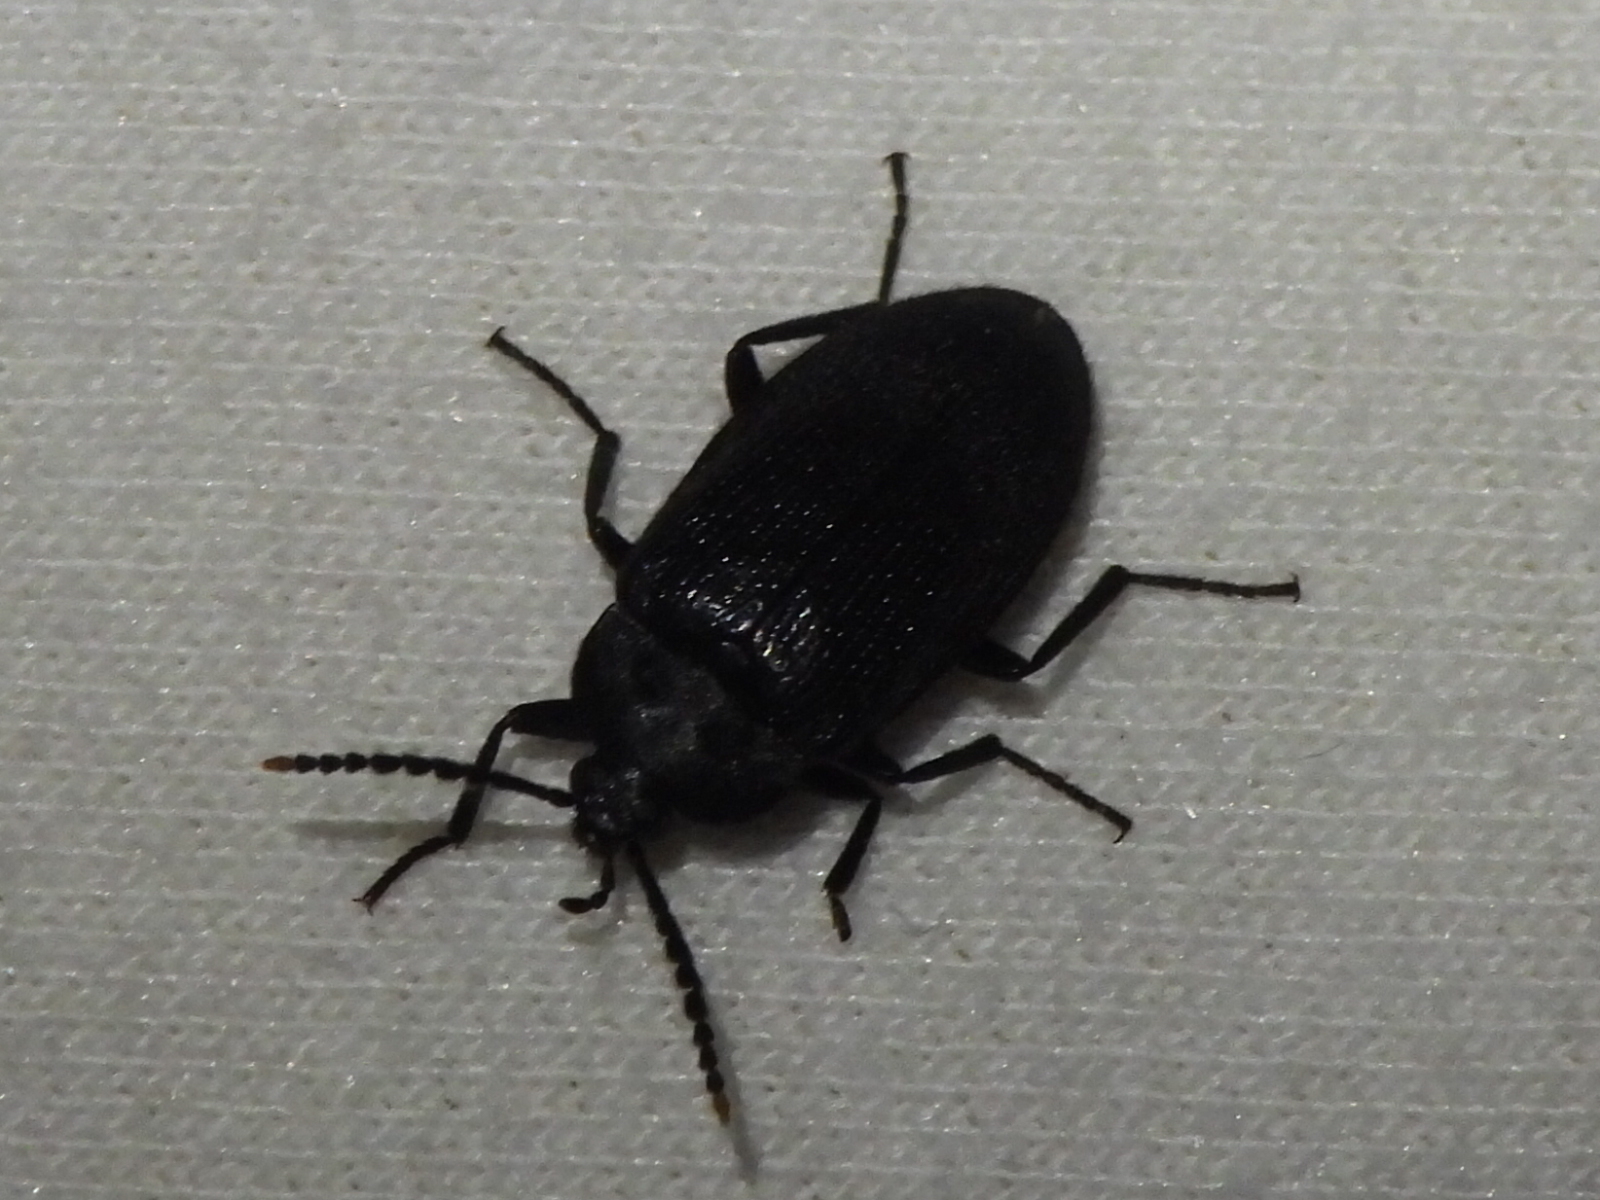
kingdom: Animalia
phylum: Arthropoda
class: Insecta
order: Coleoptera
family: Tetratomidae
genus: Penthe
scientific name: Penthe pimelia
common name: Velvety bark beetle
